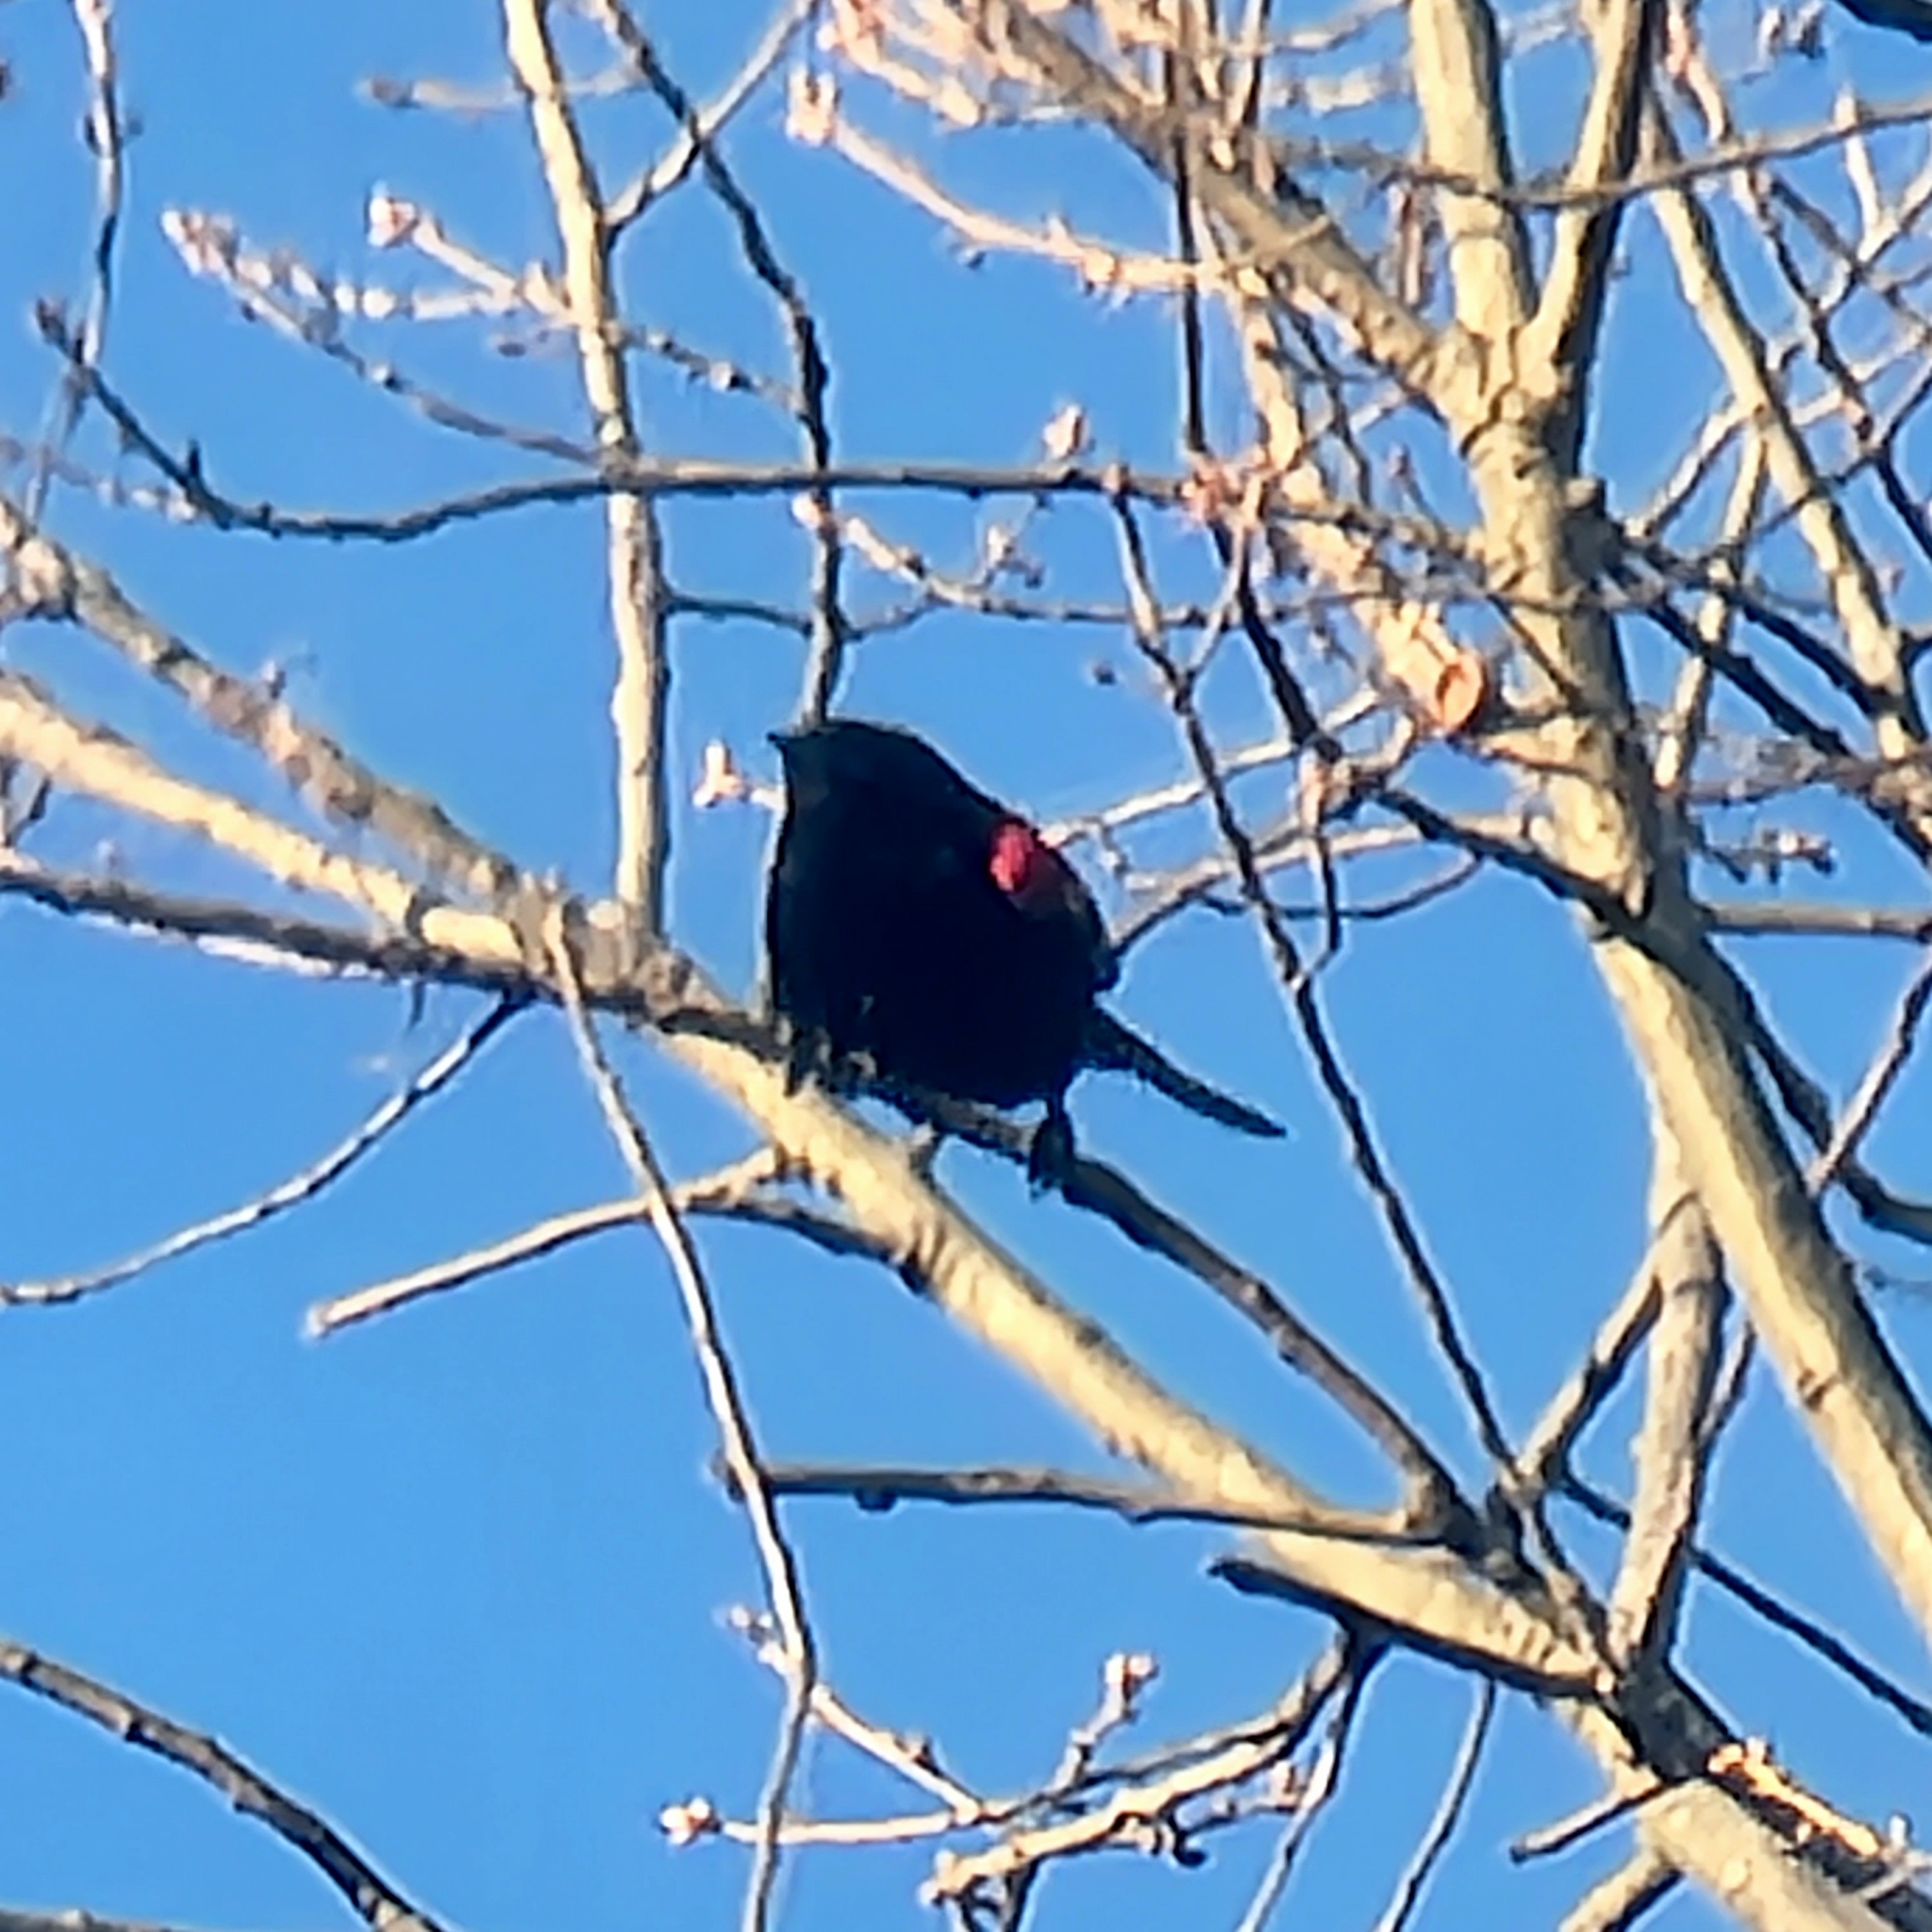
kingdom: Animalia
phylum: Chordata
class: Aves
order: Passeriformes
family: Icteridae
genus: Agelaius
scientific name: Agelaius phoeniceus
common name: Red-winged blackbird
